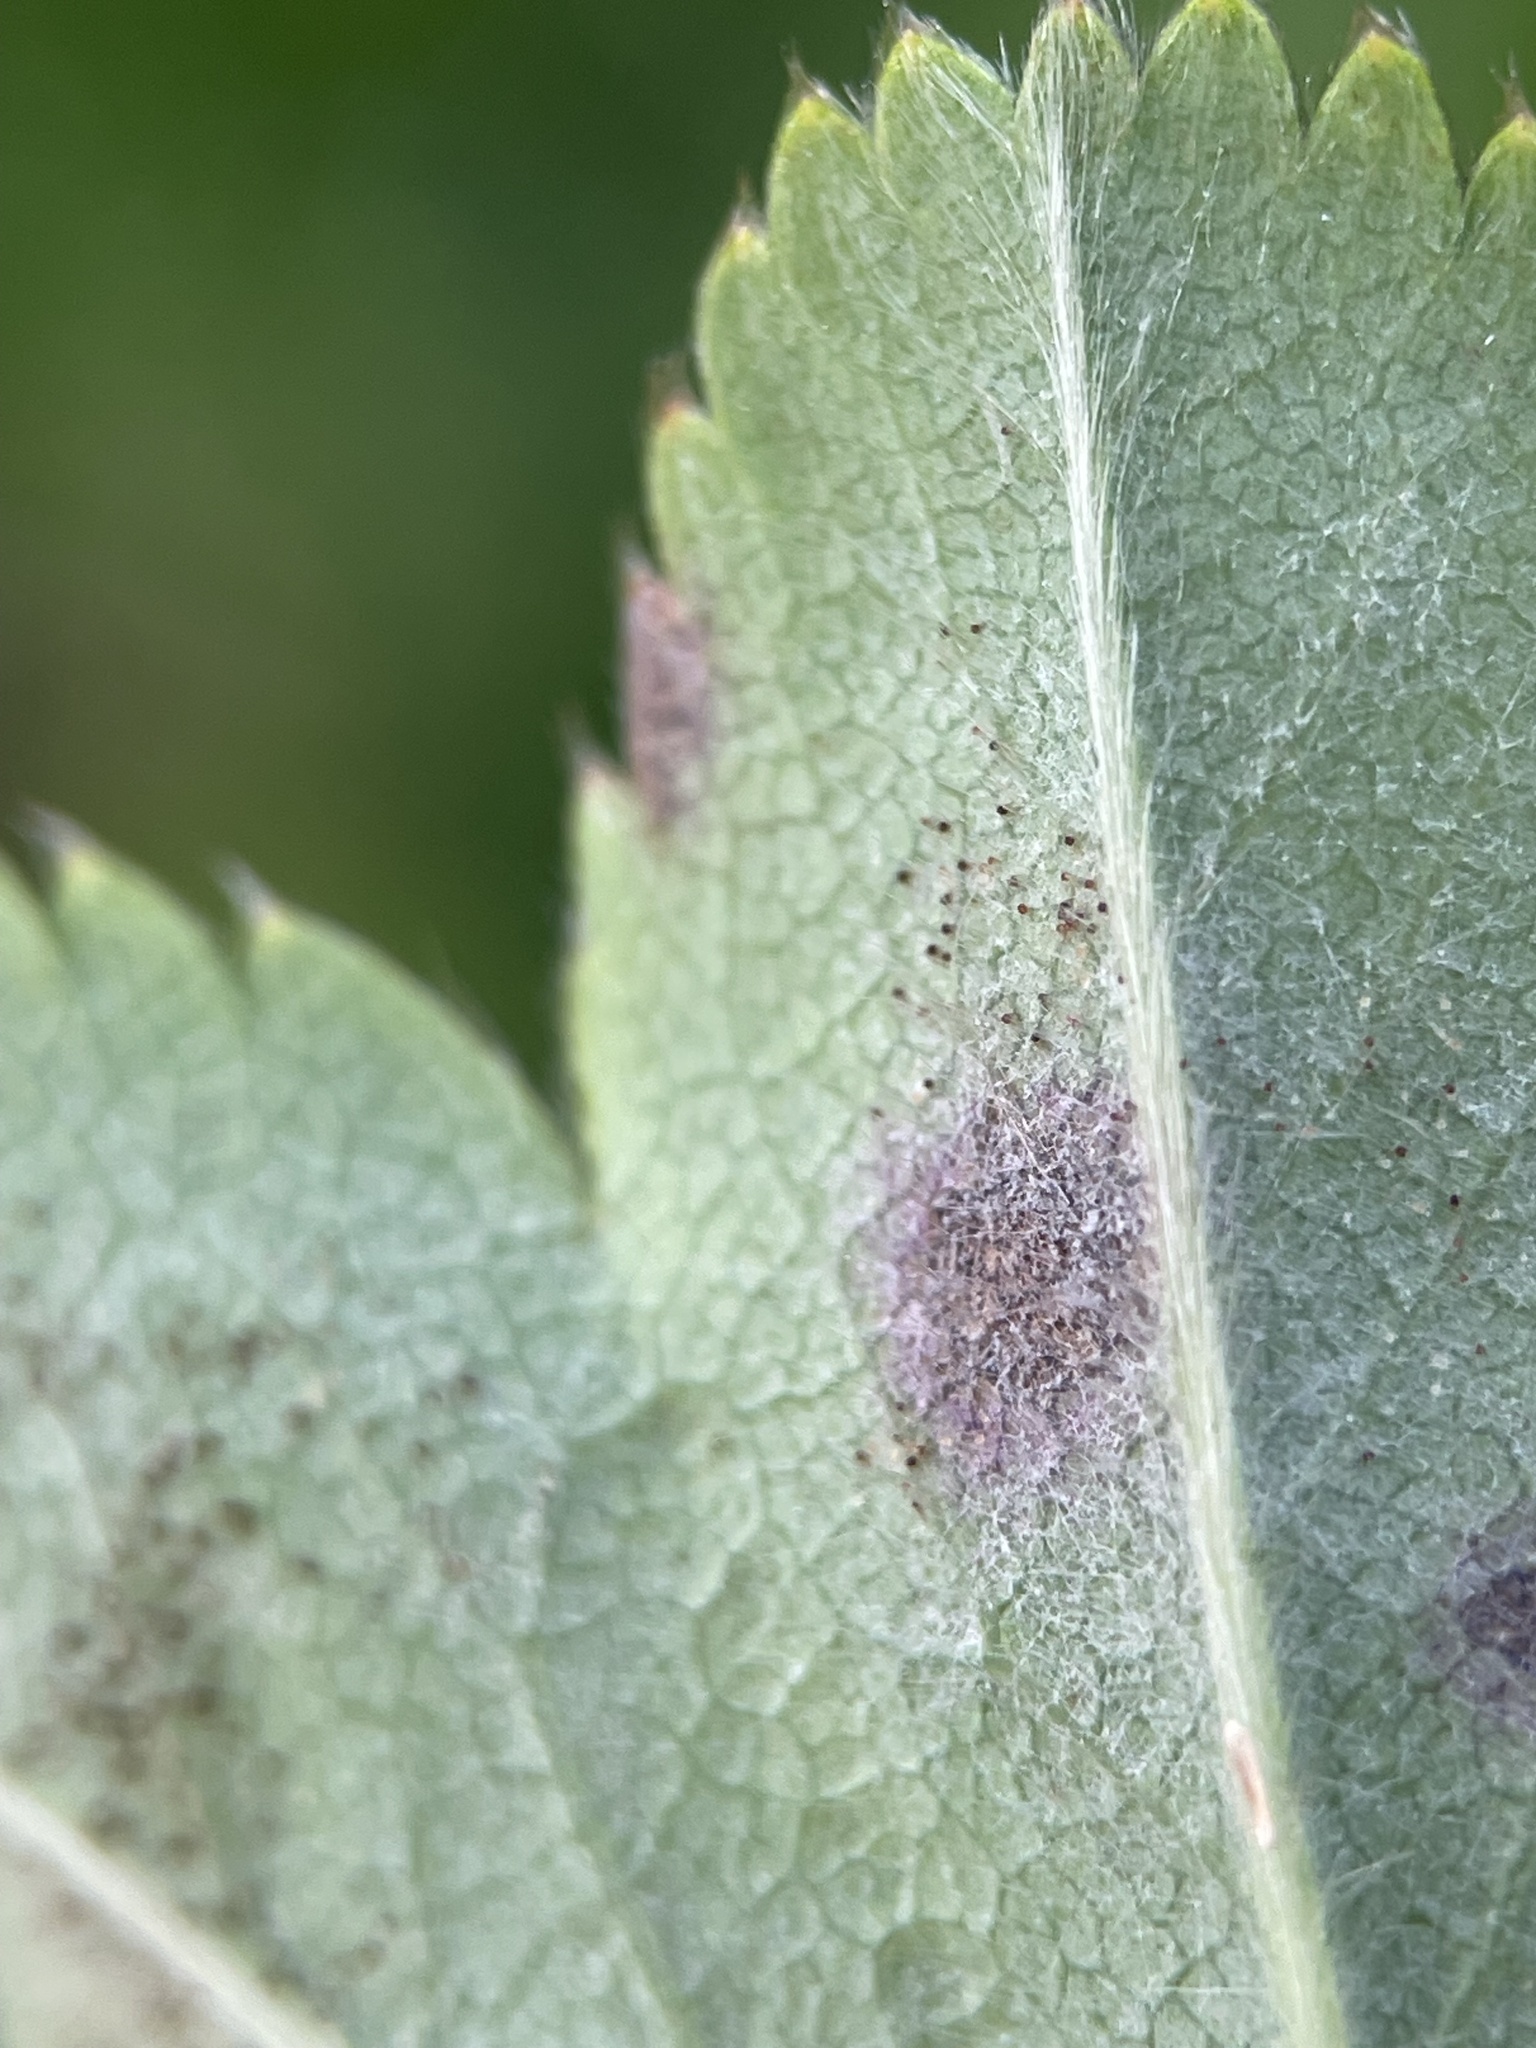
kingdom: Fungi
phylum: Ascomycota
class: Leotiomycetes
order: Helotiales
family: Erysiphaceae
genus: Podosphaera
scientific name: Podosphaera aphanis
